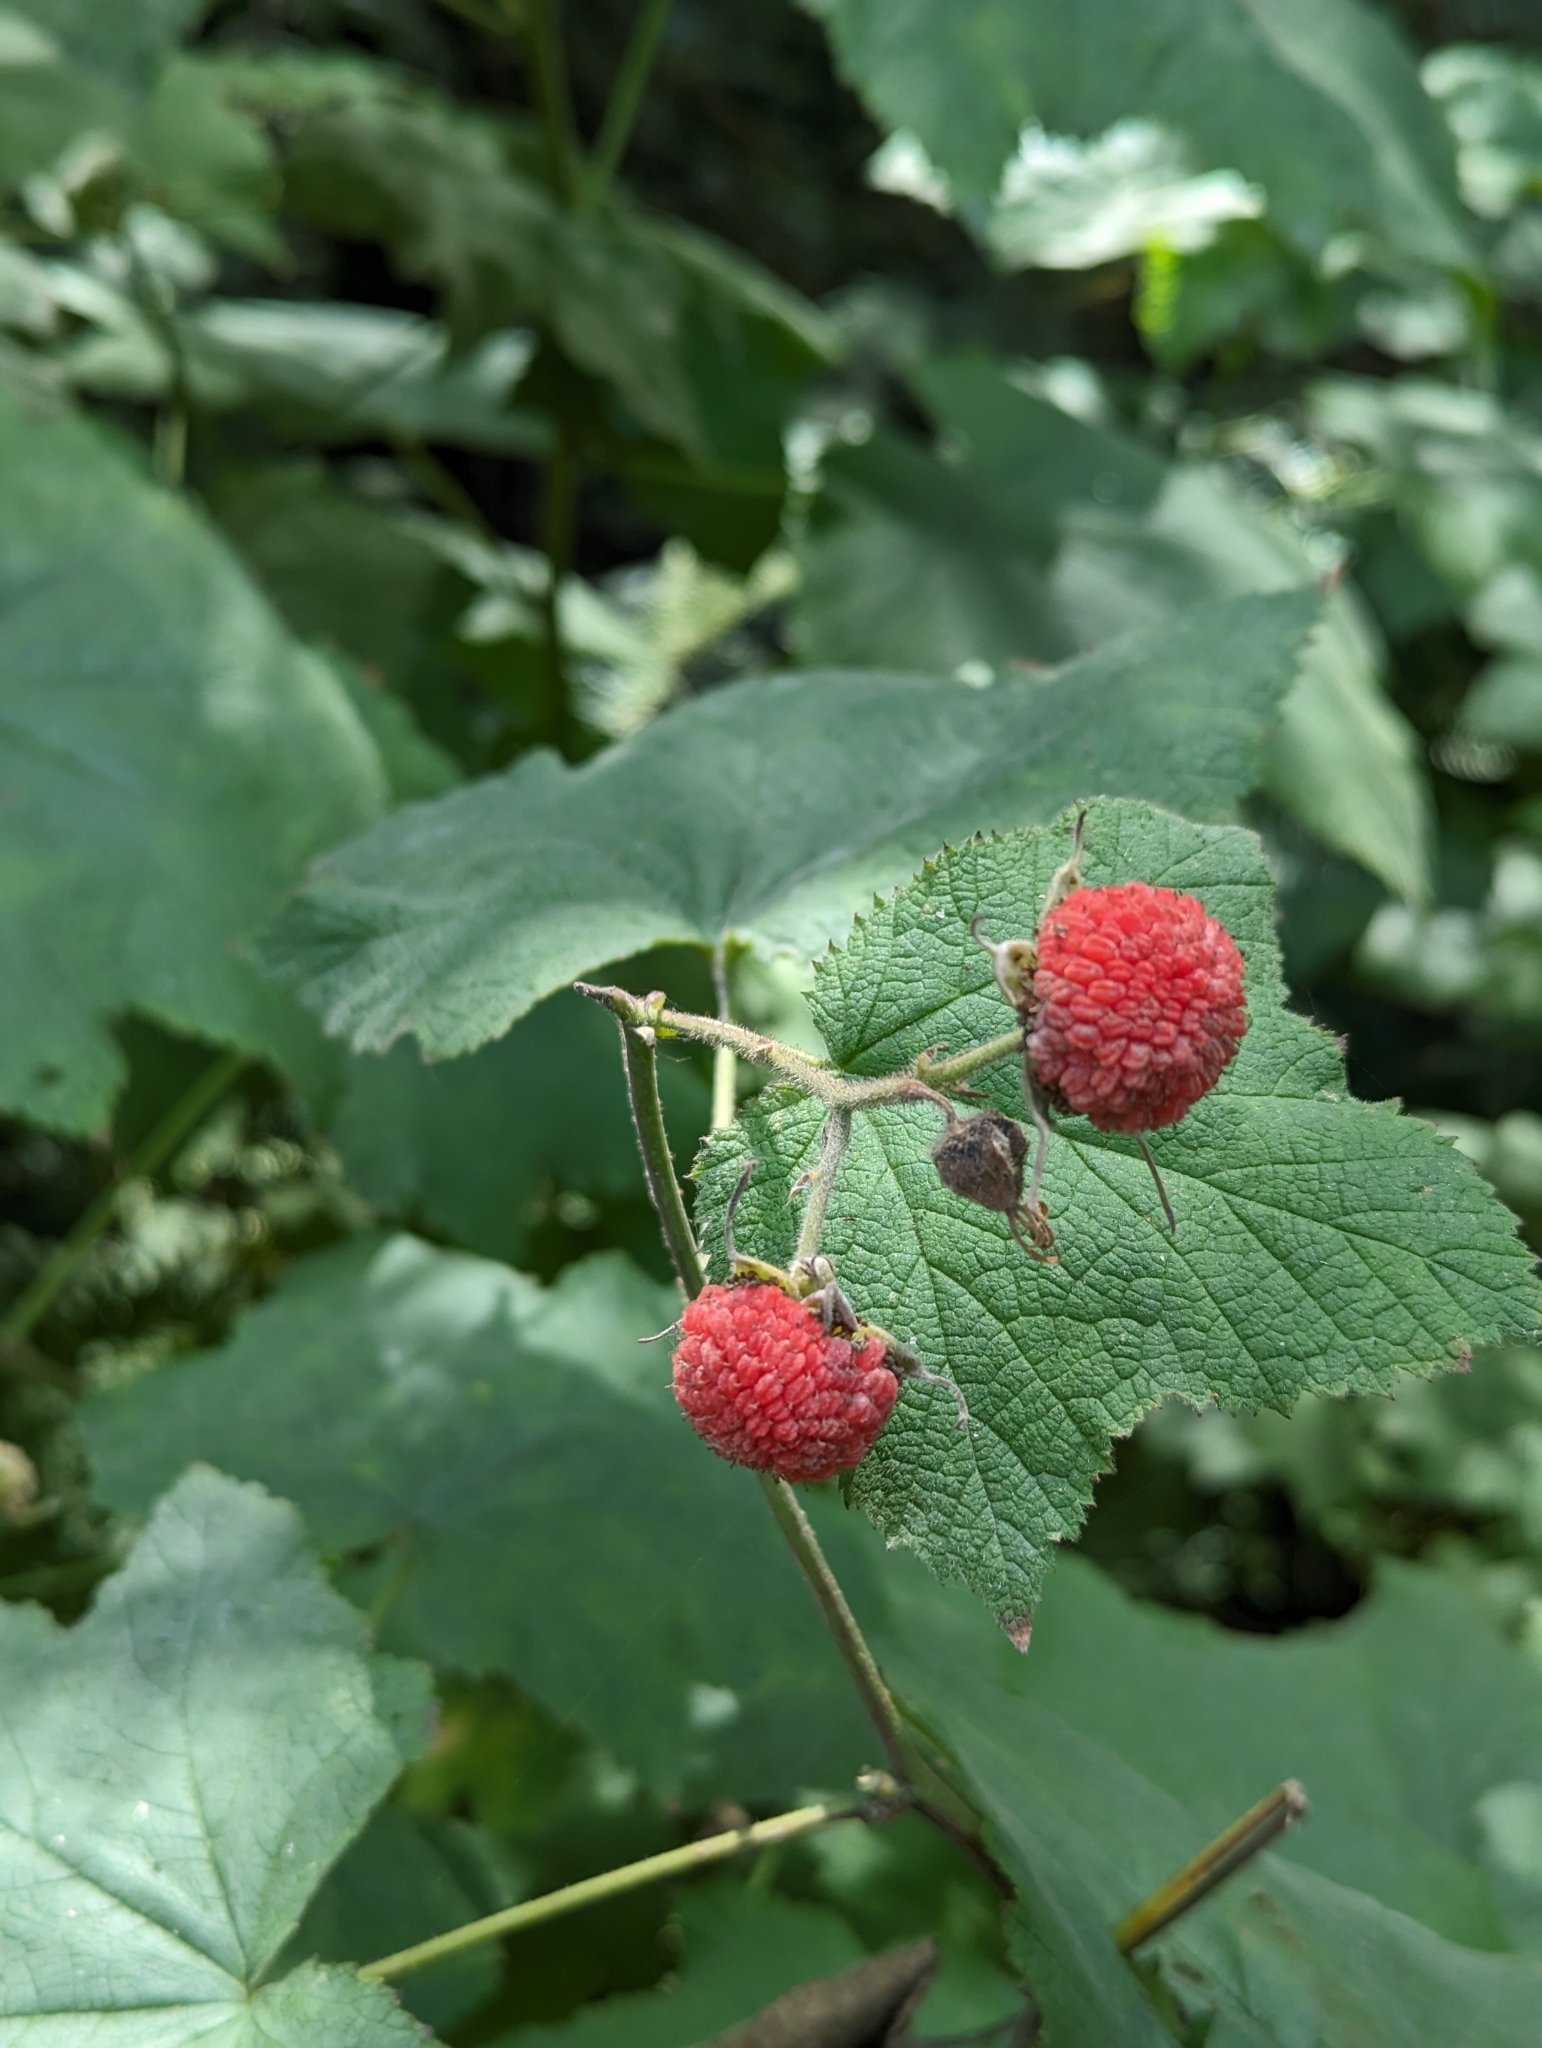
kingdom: Plantae
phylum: Tracheophyta
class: Magnoliopsida
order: Rosales
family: Rosaceae
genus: Rubus
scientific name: Rubus parviflorus
